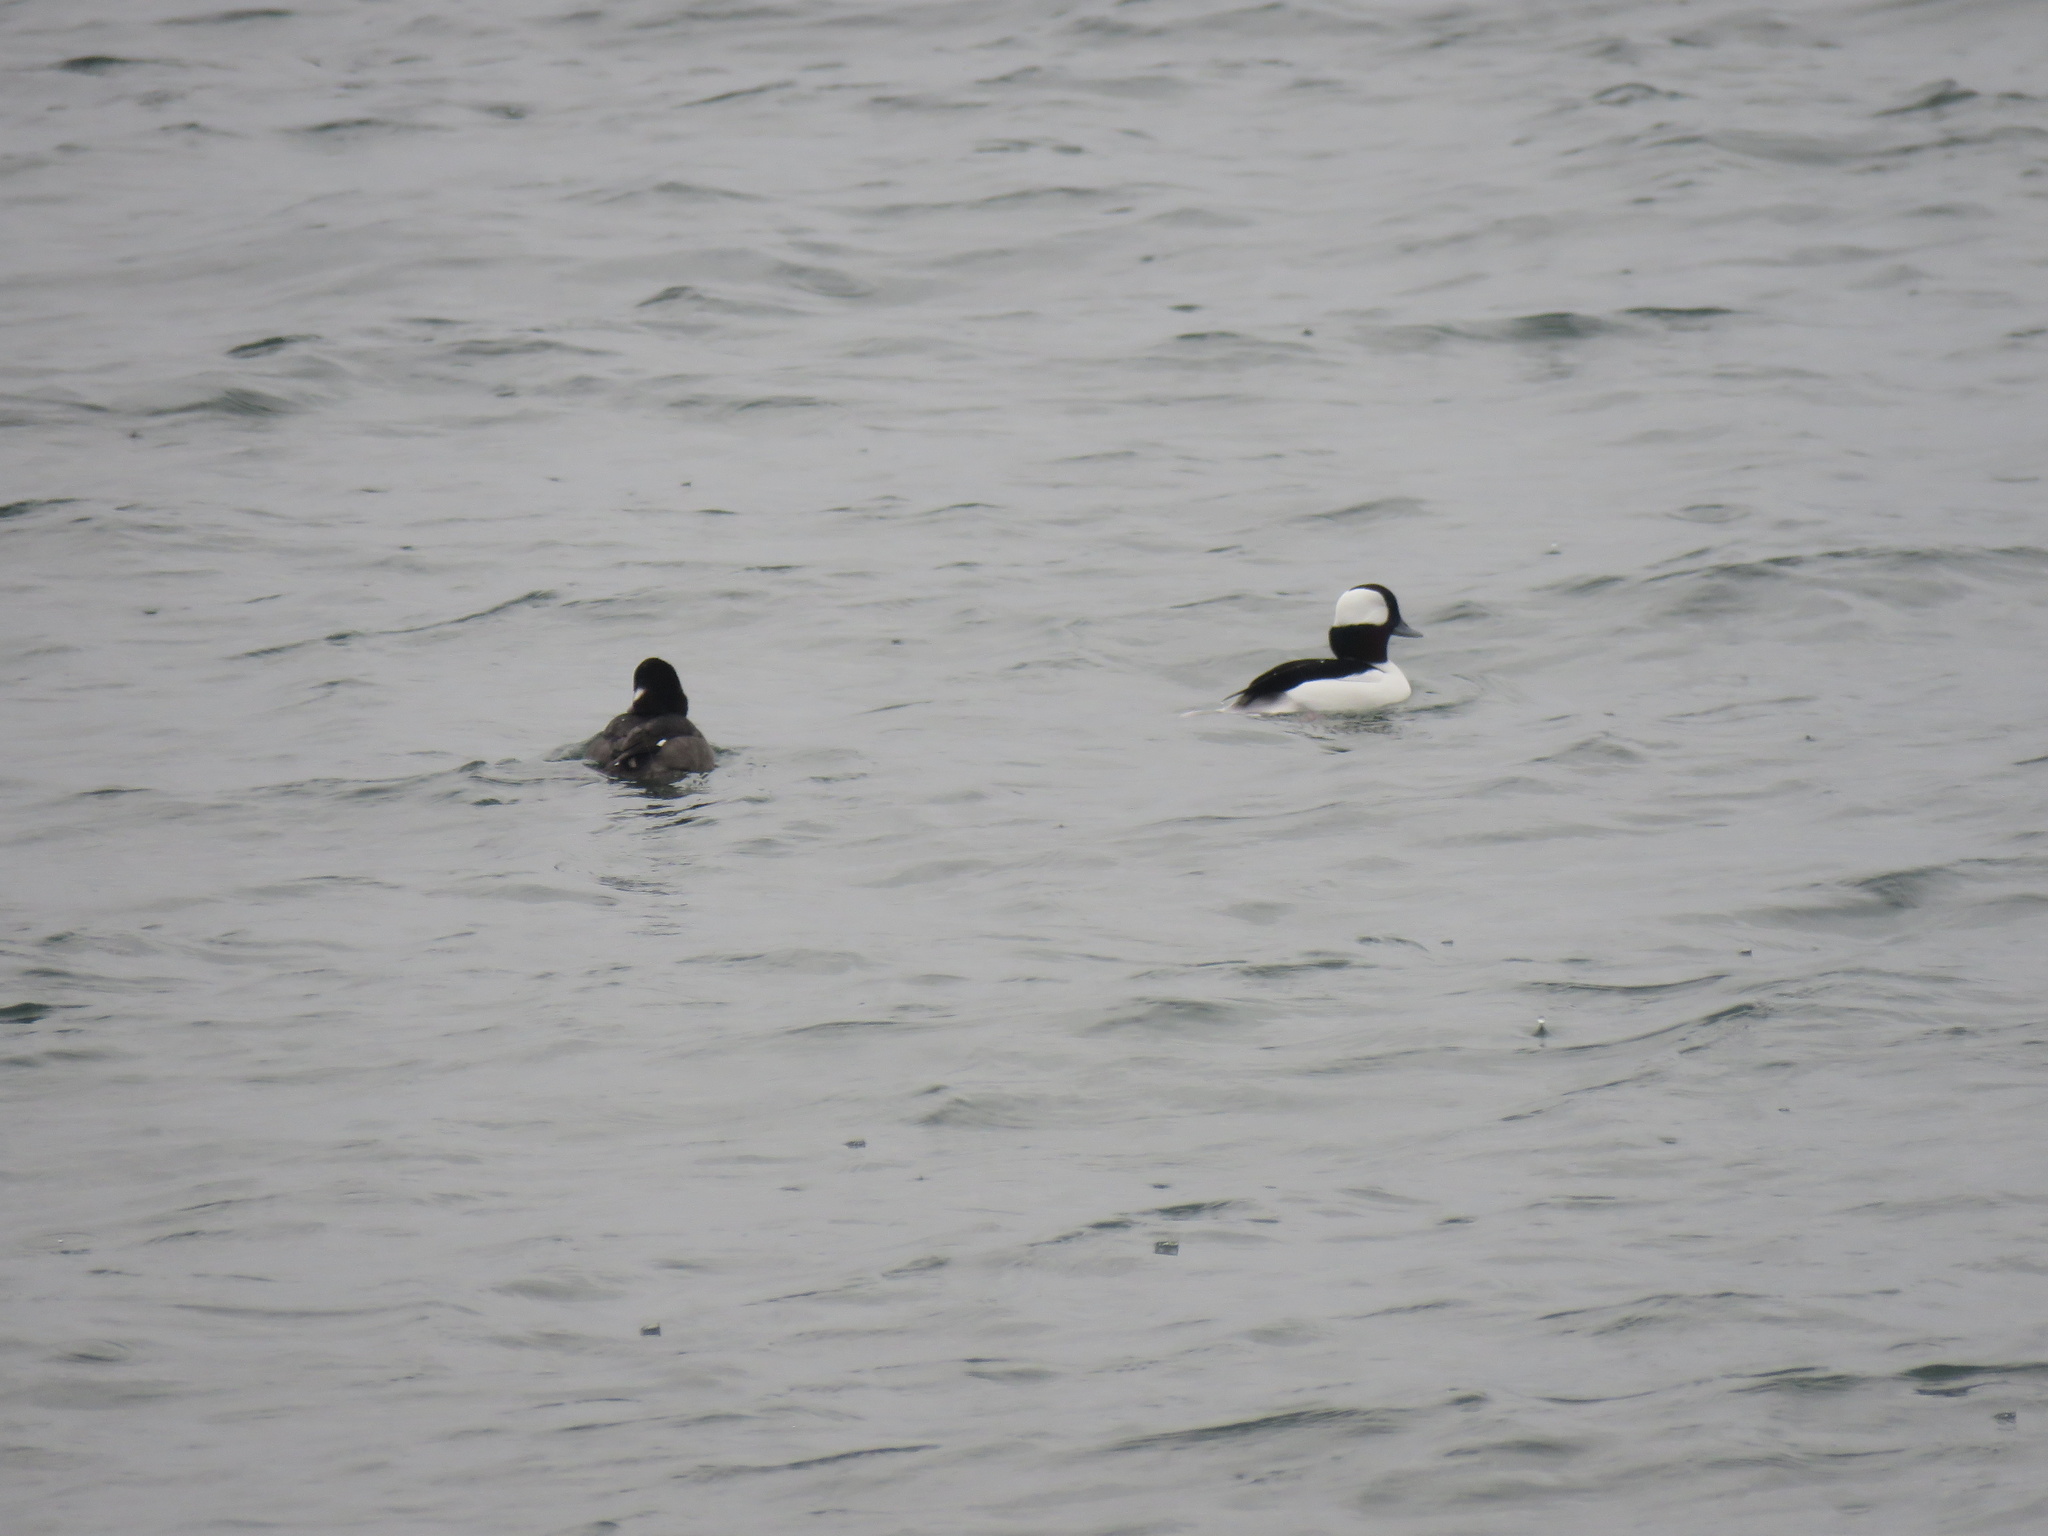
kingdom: Animalia
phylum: Chordata
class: Aves
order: Anseriformes
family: Anatidae
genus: Bucephala
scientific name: Bucephala albeola
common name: Bufflehead
